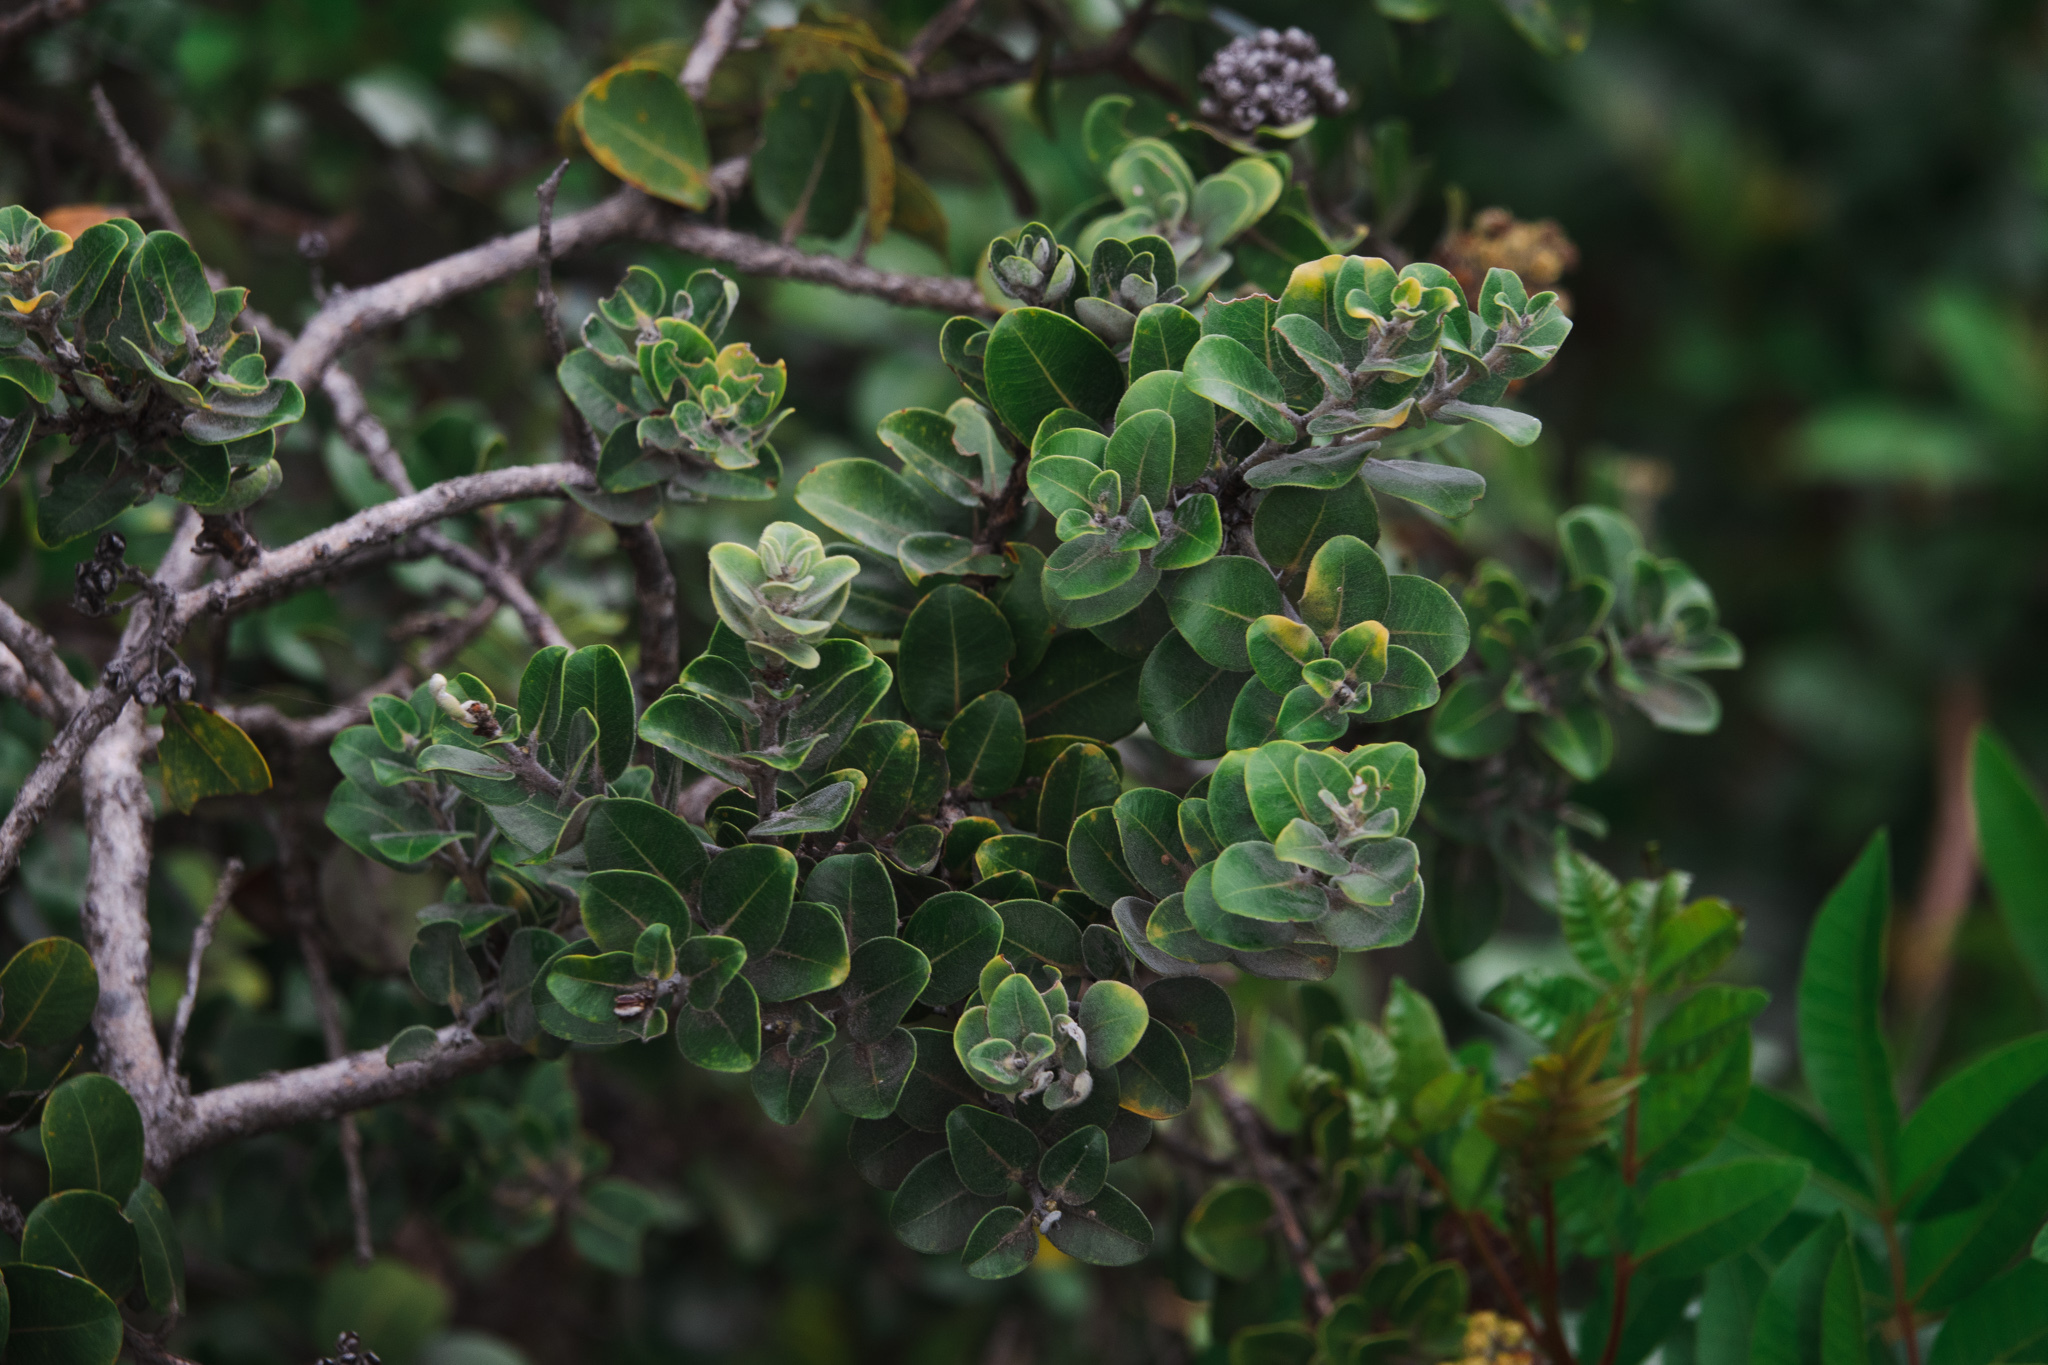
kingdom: Plantae
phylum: Tracheophyta
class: Magnoliopsida
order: Myrtales
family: Myrtaceae
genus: Metrosideros
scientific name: Metrosideros polymorpha
